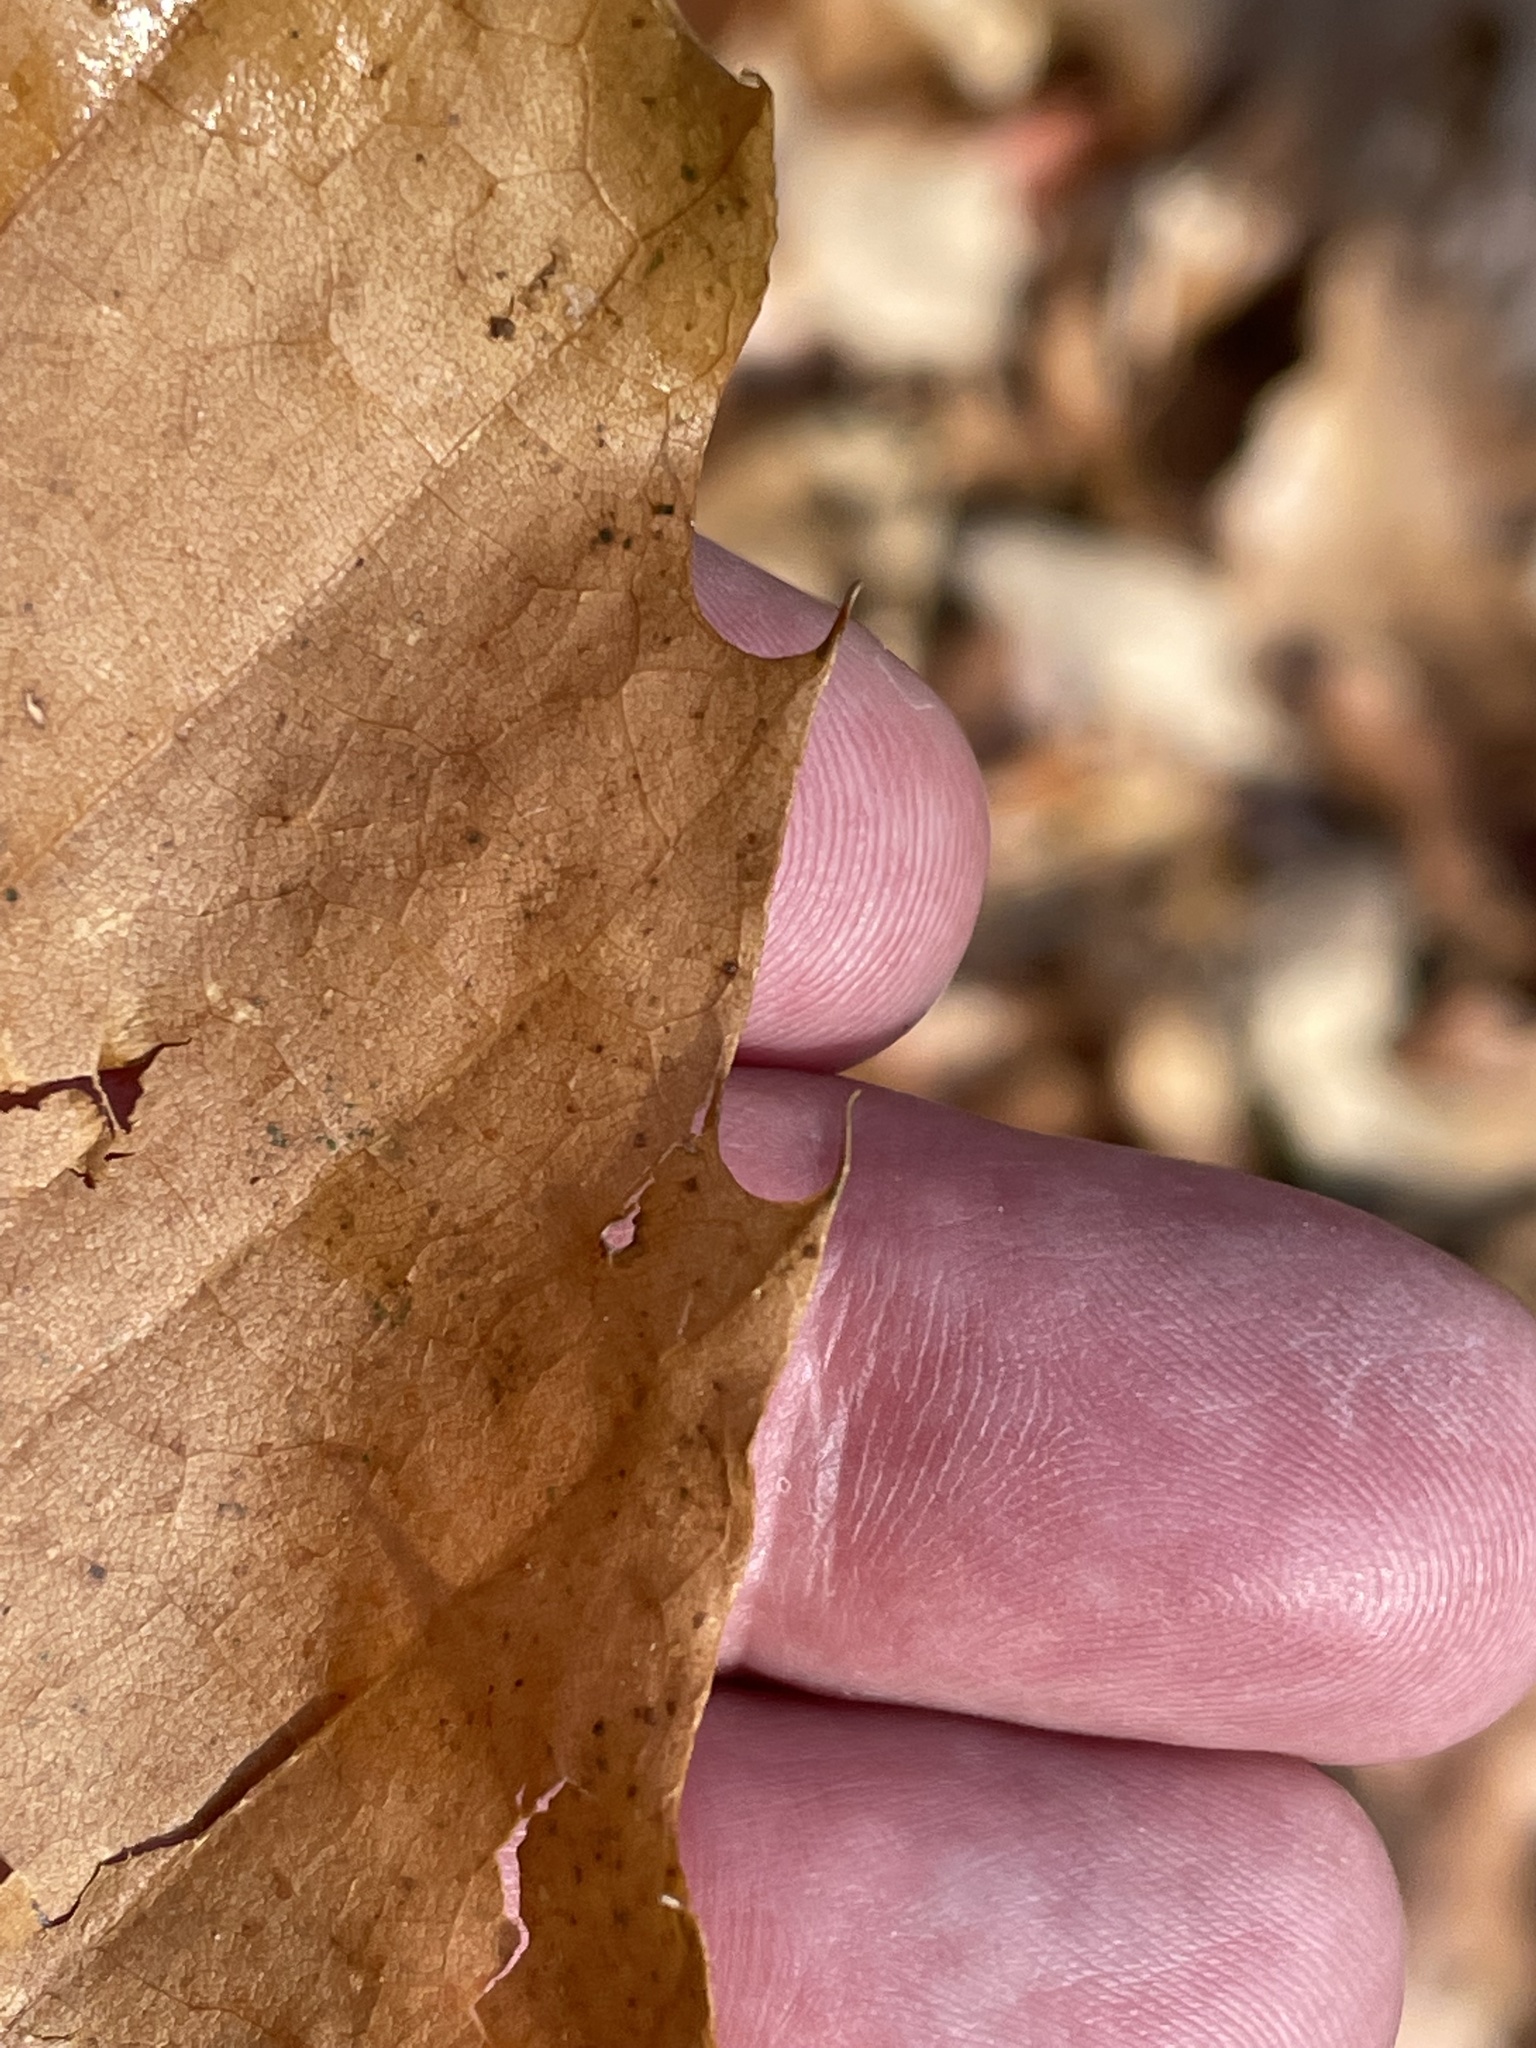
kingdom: Plantae
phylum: Tracheophyta
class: Magnoliopsida
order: Fagales
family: Fagaceae
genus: Castanea
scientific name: Castanea dentata
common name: American chestnut
